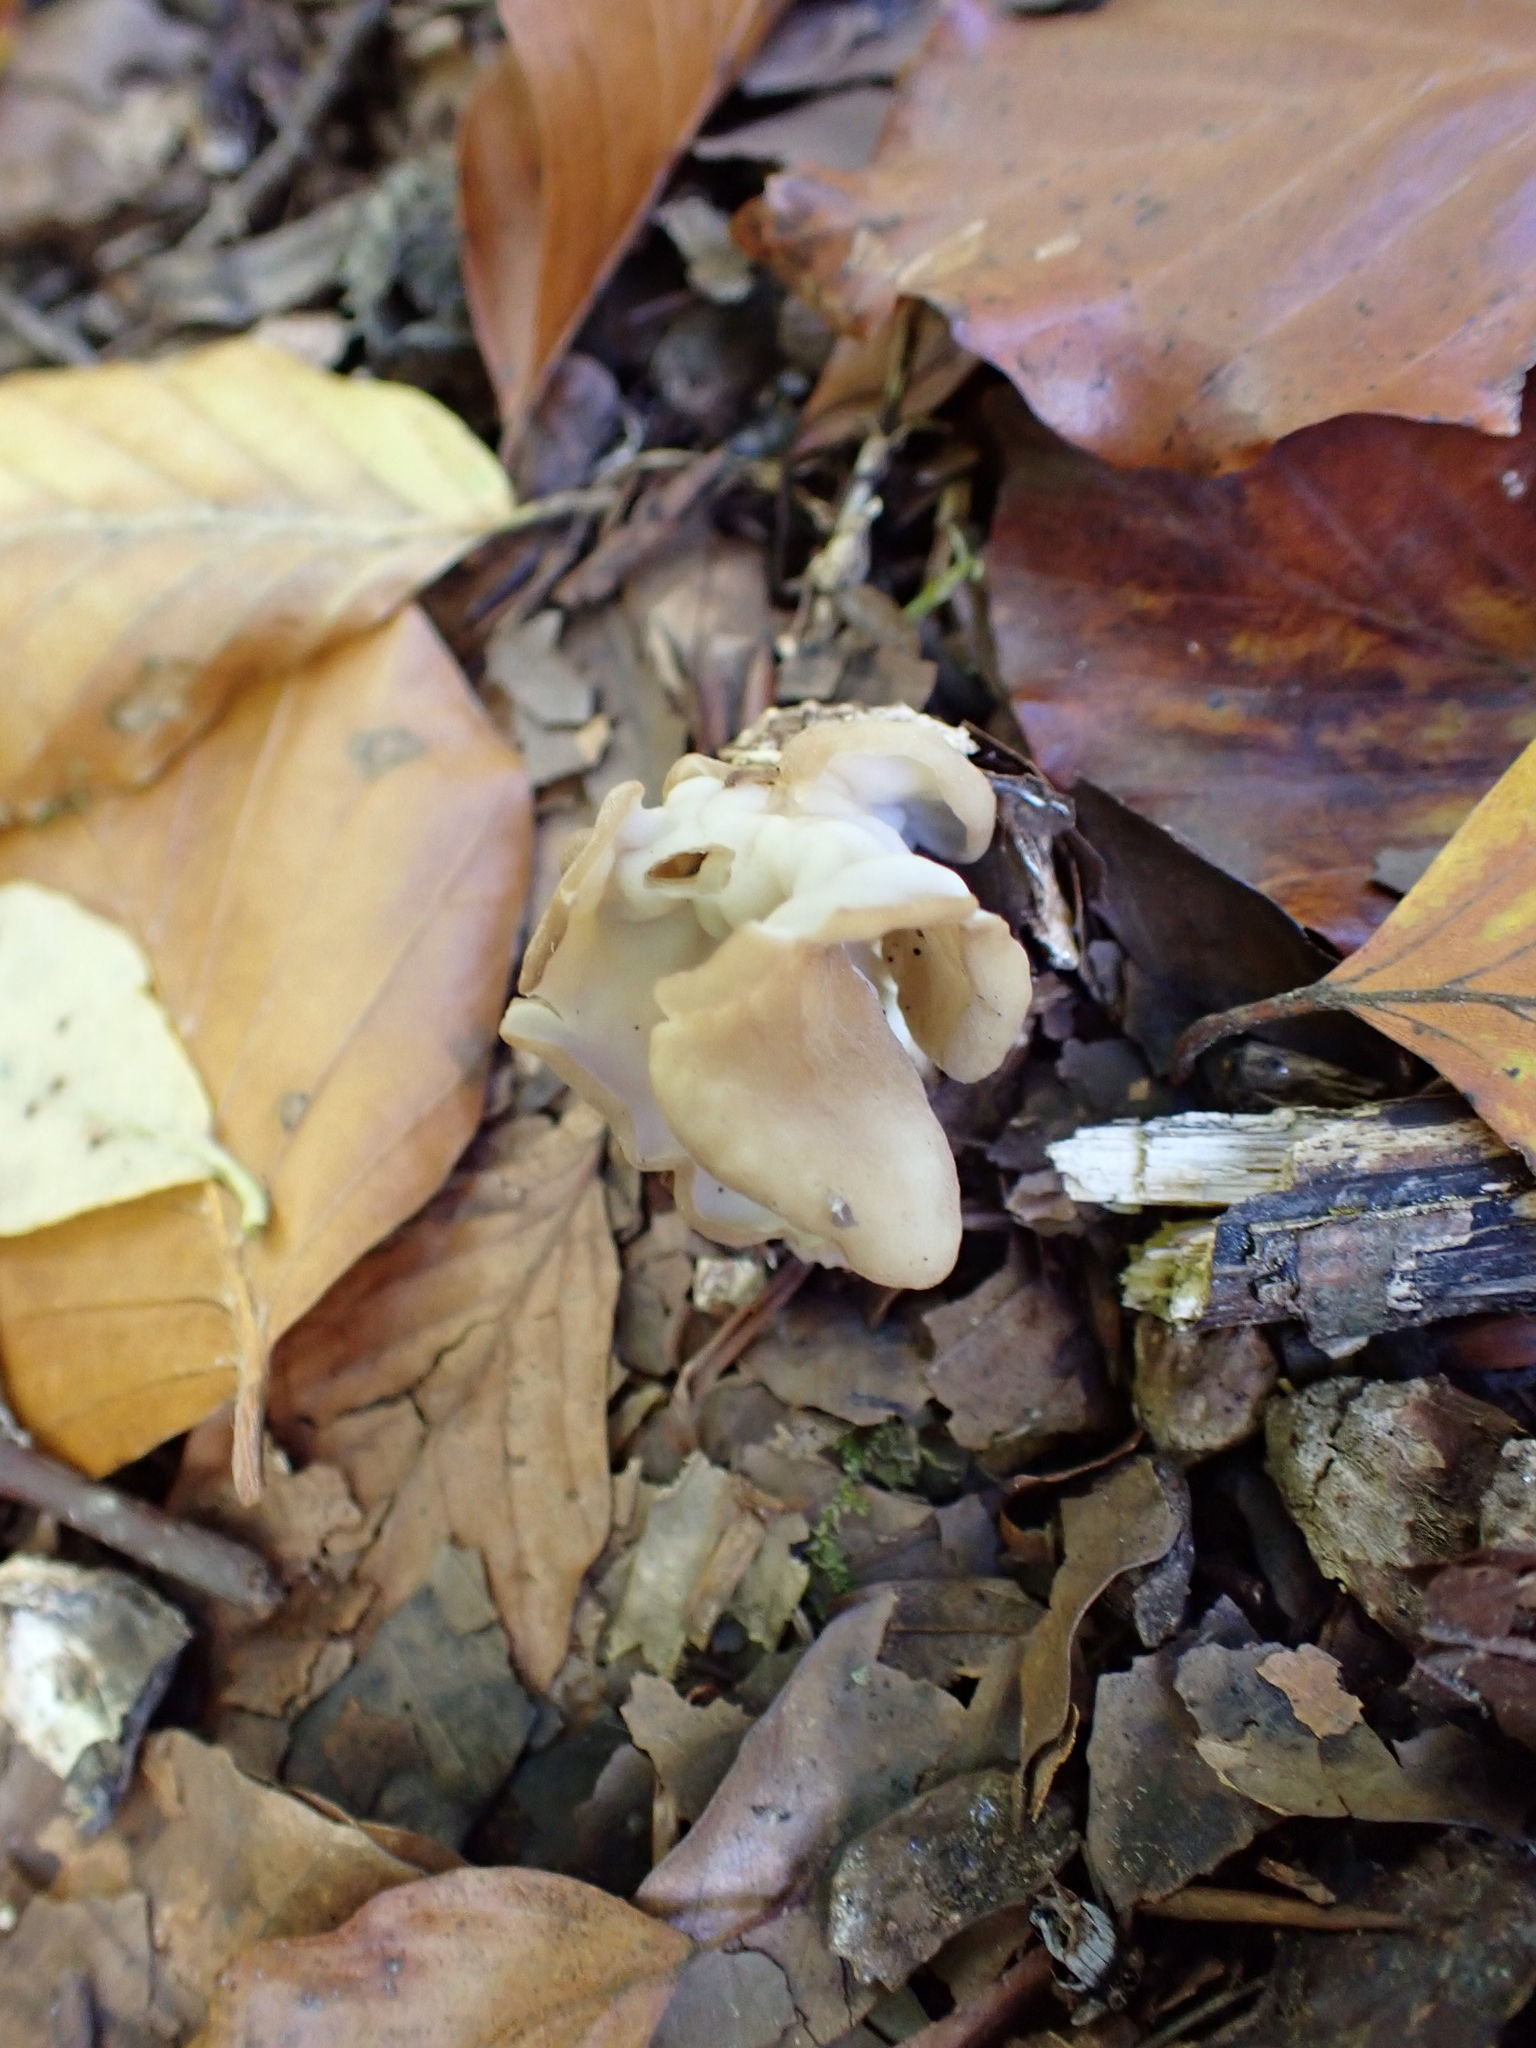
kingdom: Fungi
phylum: Ascomycota
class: Pezizomycetes
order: Pezizales
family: Helvellaceae
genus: Helvella
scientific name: Helvella crispa
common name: White saddle
